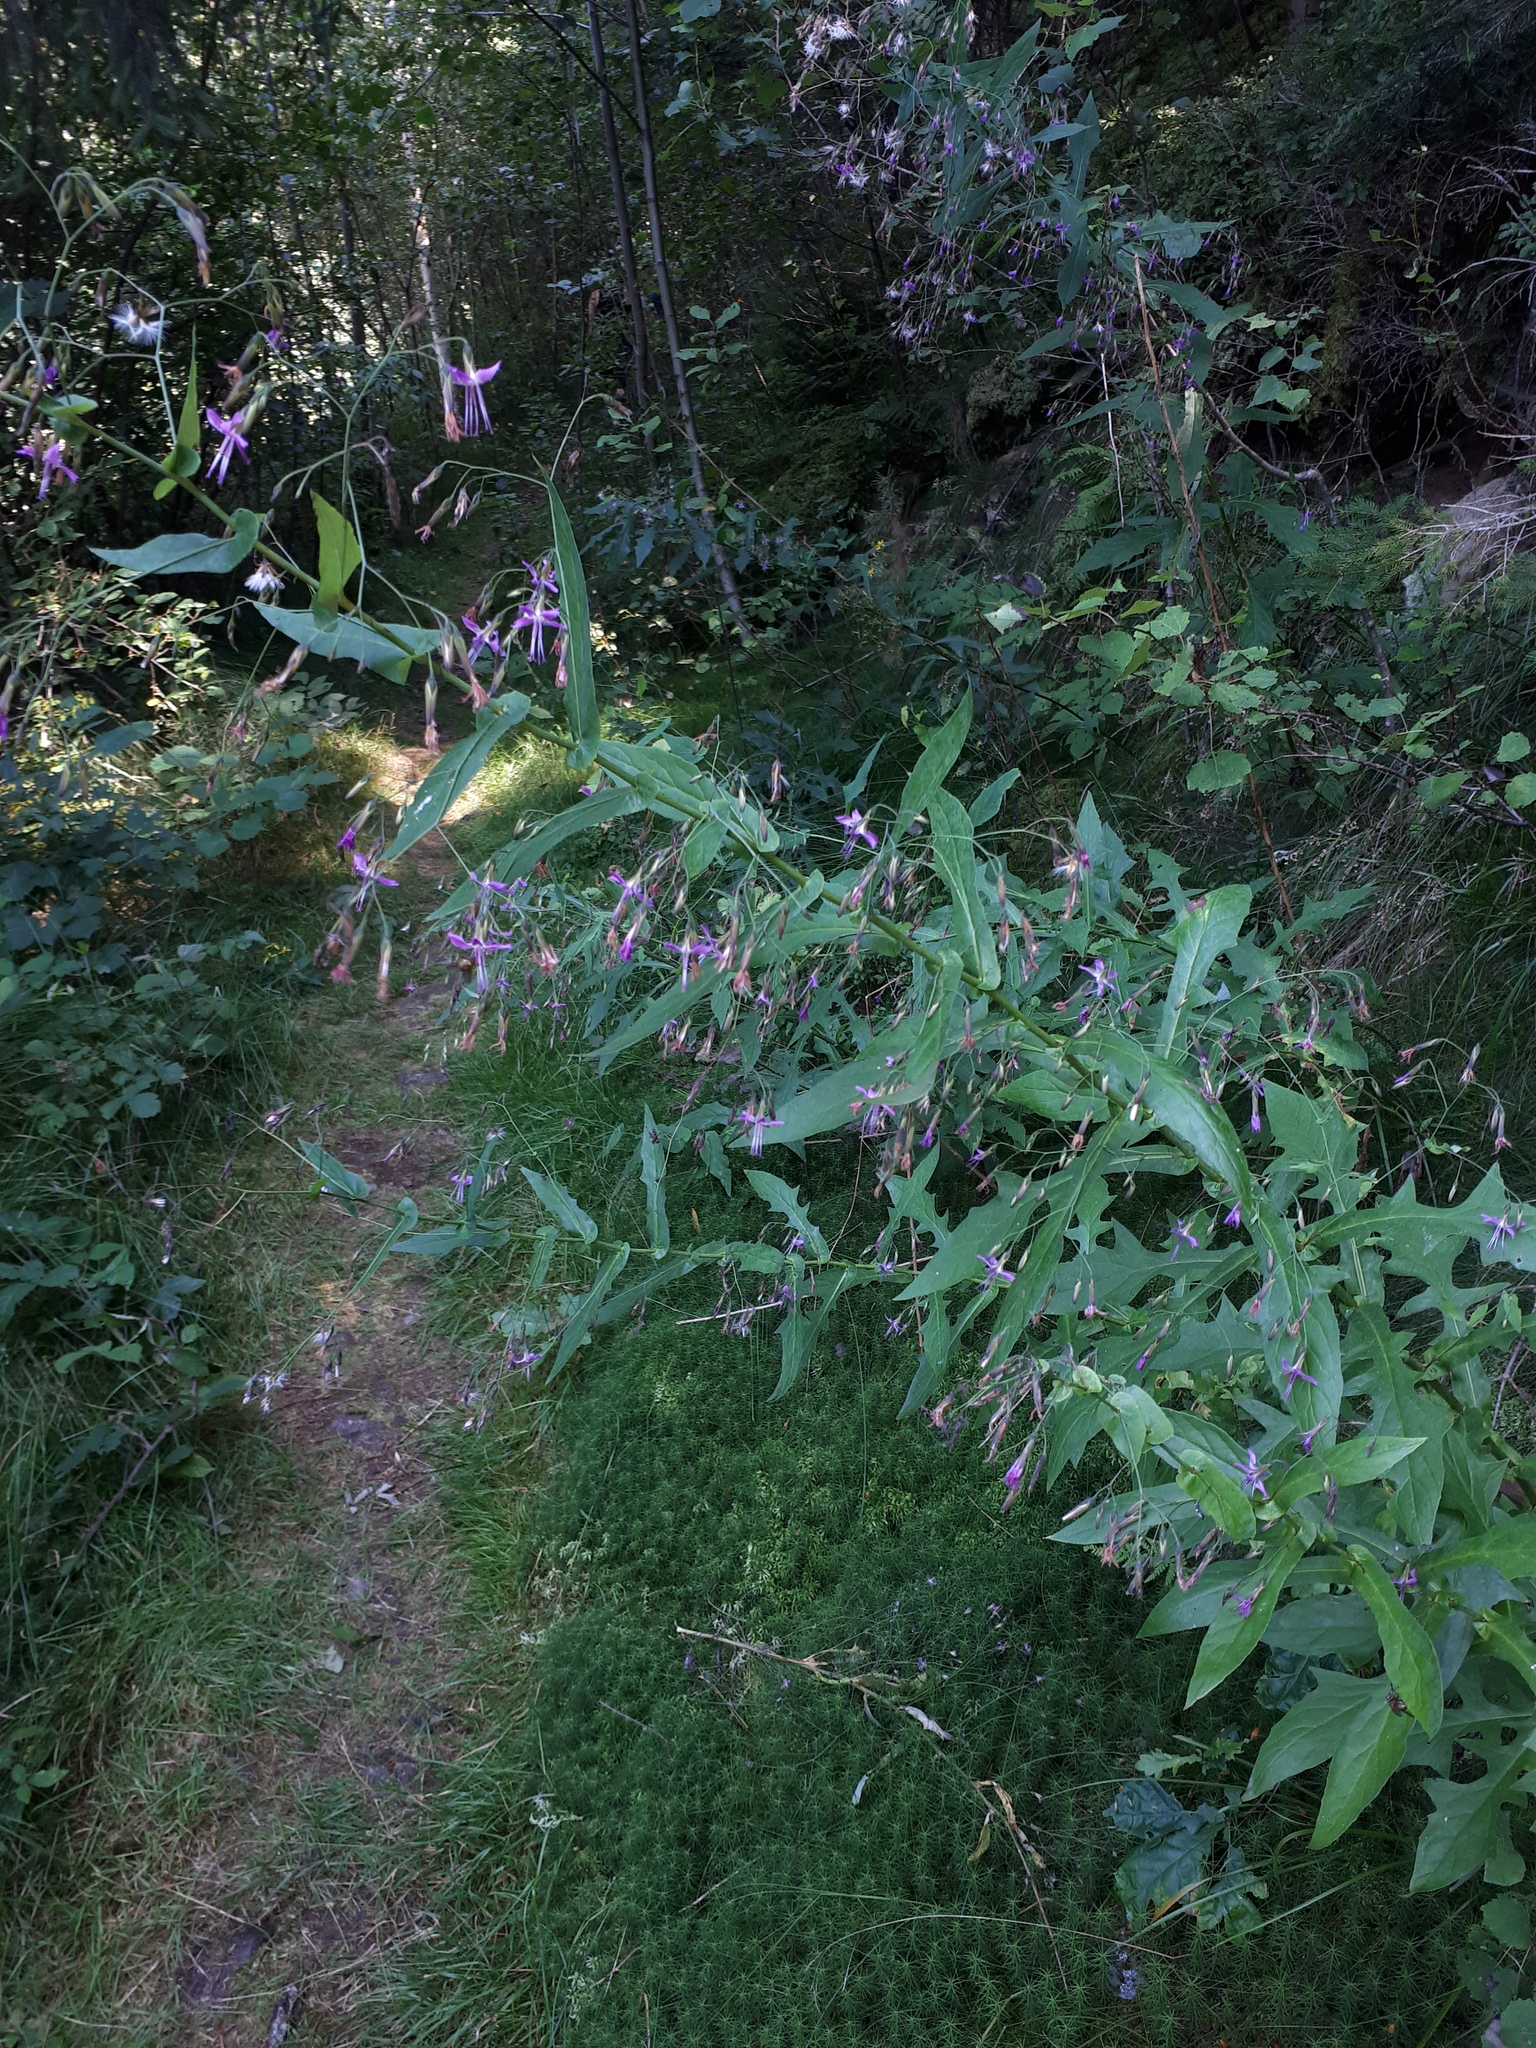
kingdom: Plantae
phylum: Tracheophyta
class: Magnoliopsida
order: Asterales
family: Asteraceae
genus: Prenanthes
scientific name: Prenanthes purpurea
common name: Purple lettuce
